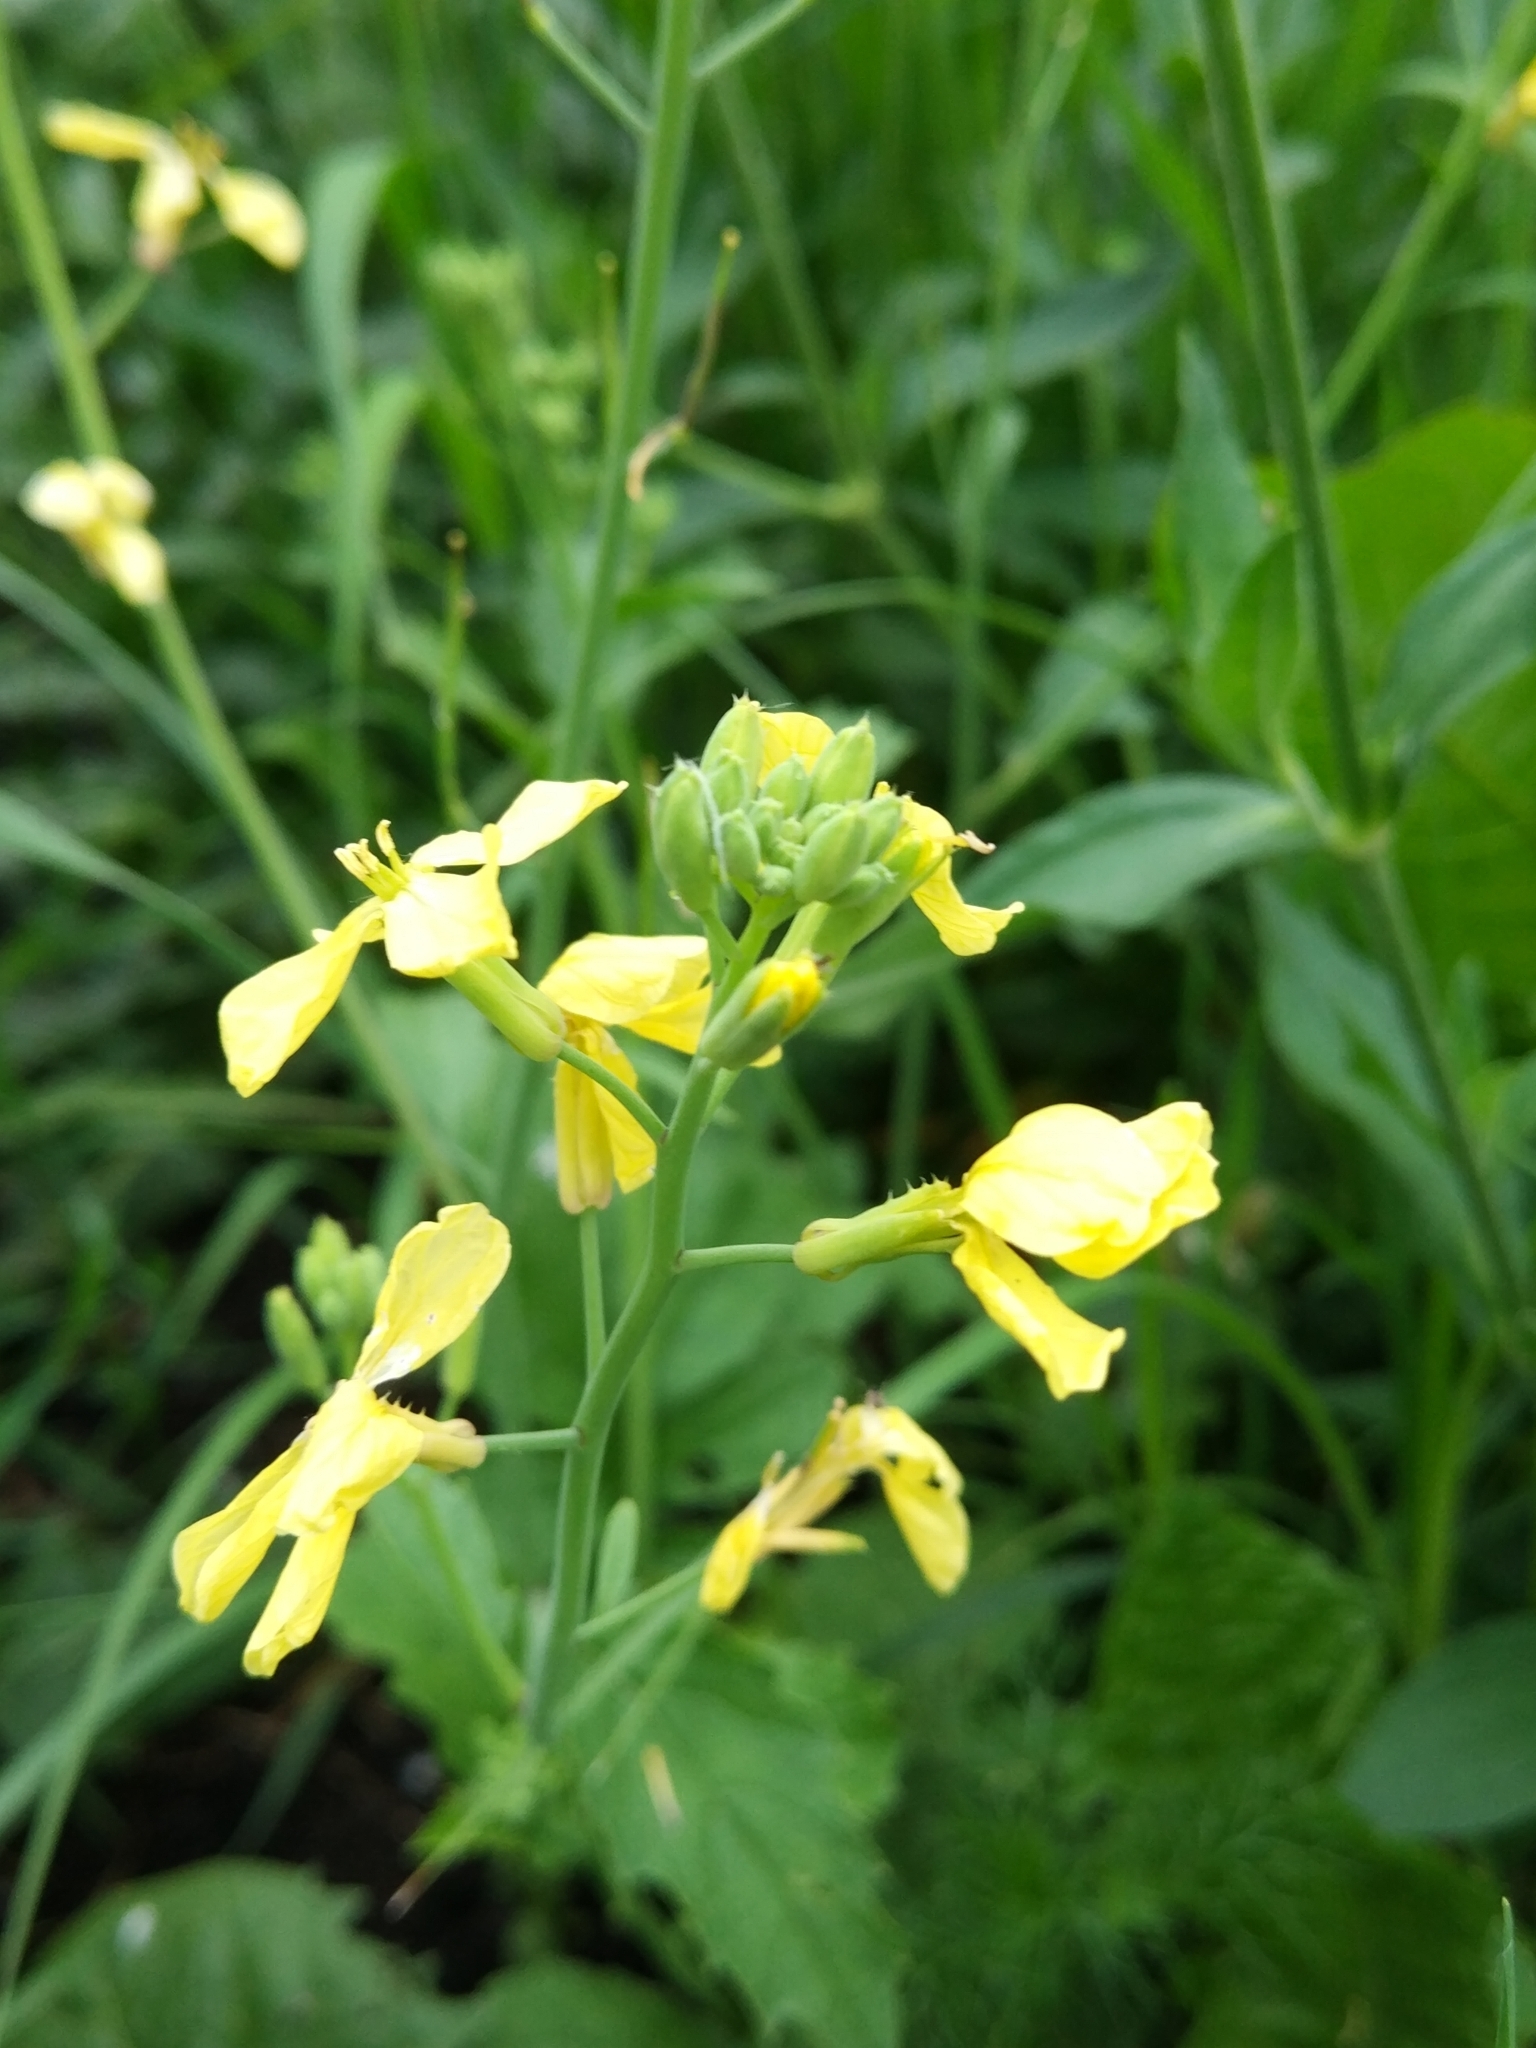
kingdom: Plantae
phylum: Tracheophyta
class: Magnoliopsida
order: Brassicales
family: Brassicaceae
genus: Raphanus
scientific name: Raphanus raphanistrum
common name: Wild radish
